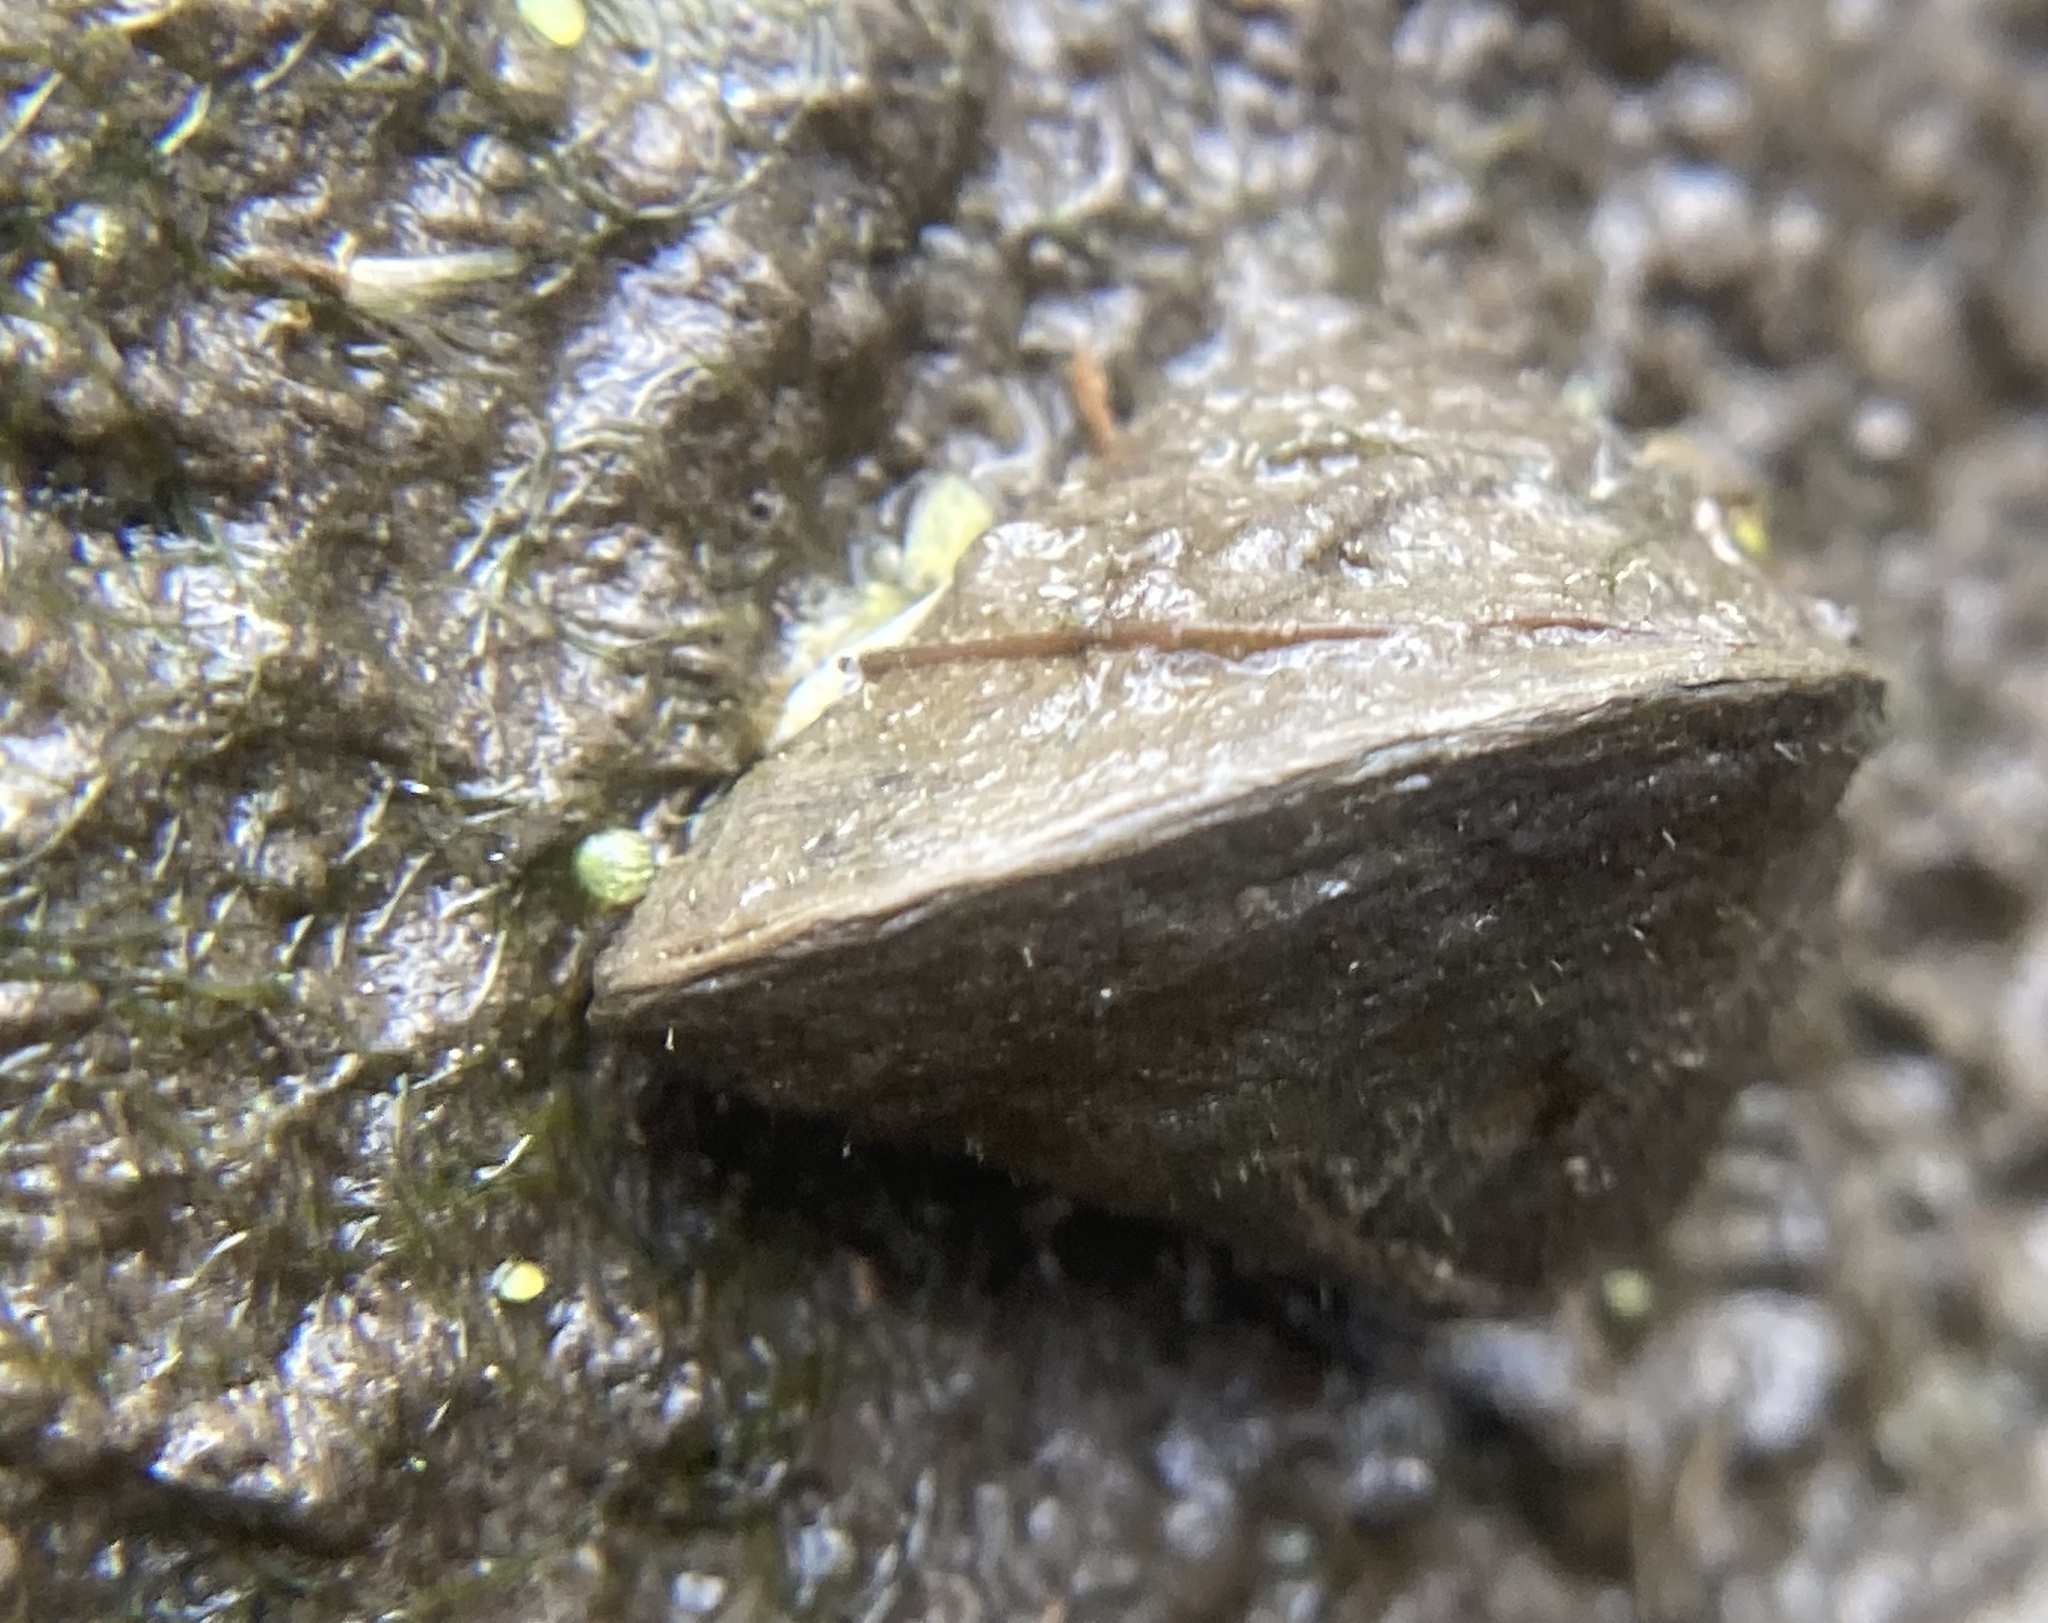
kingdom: Animalia
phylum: Mollusca
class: Bivalvia
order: Myida
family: Dreissenidae
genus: Dreissena
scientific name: Dreissena polymorpha
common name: Zebra mussel
